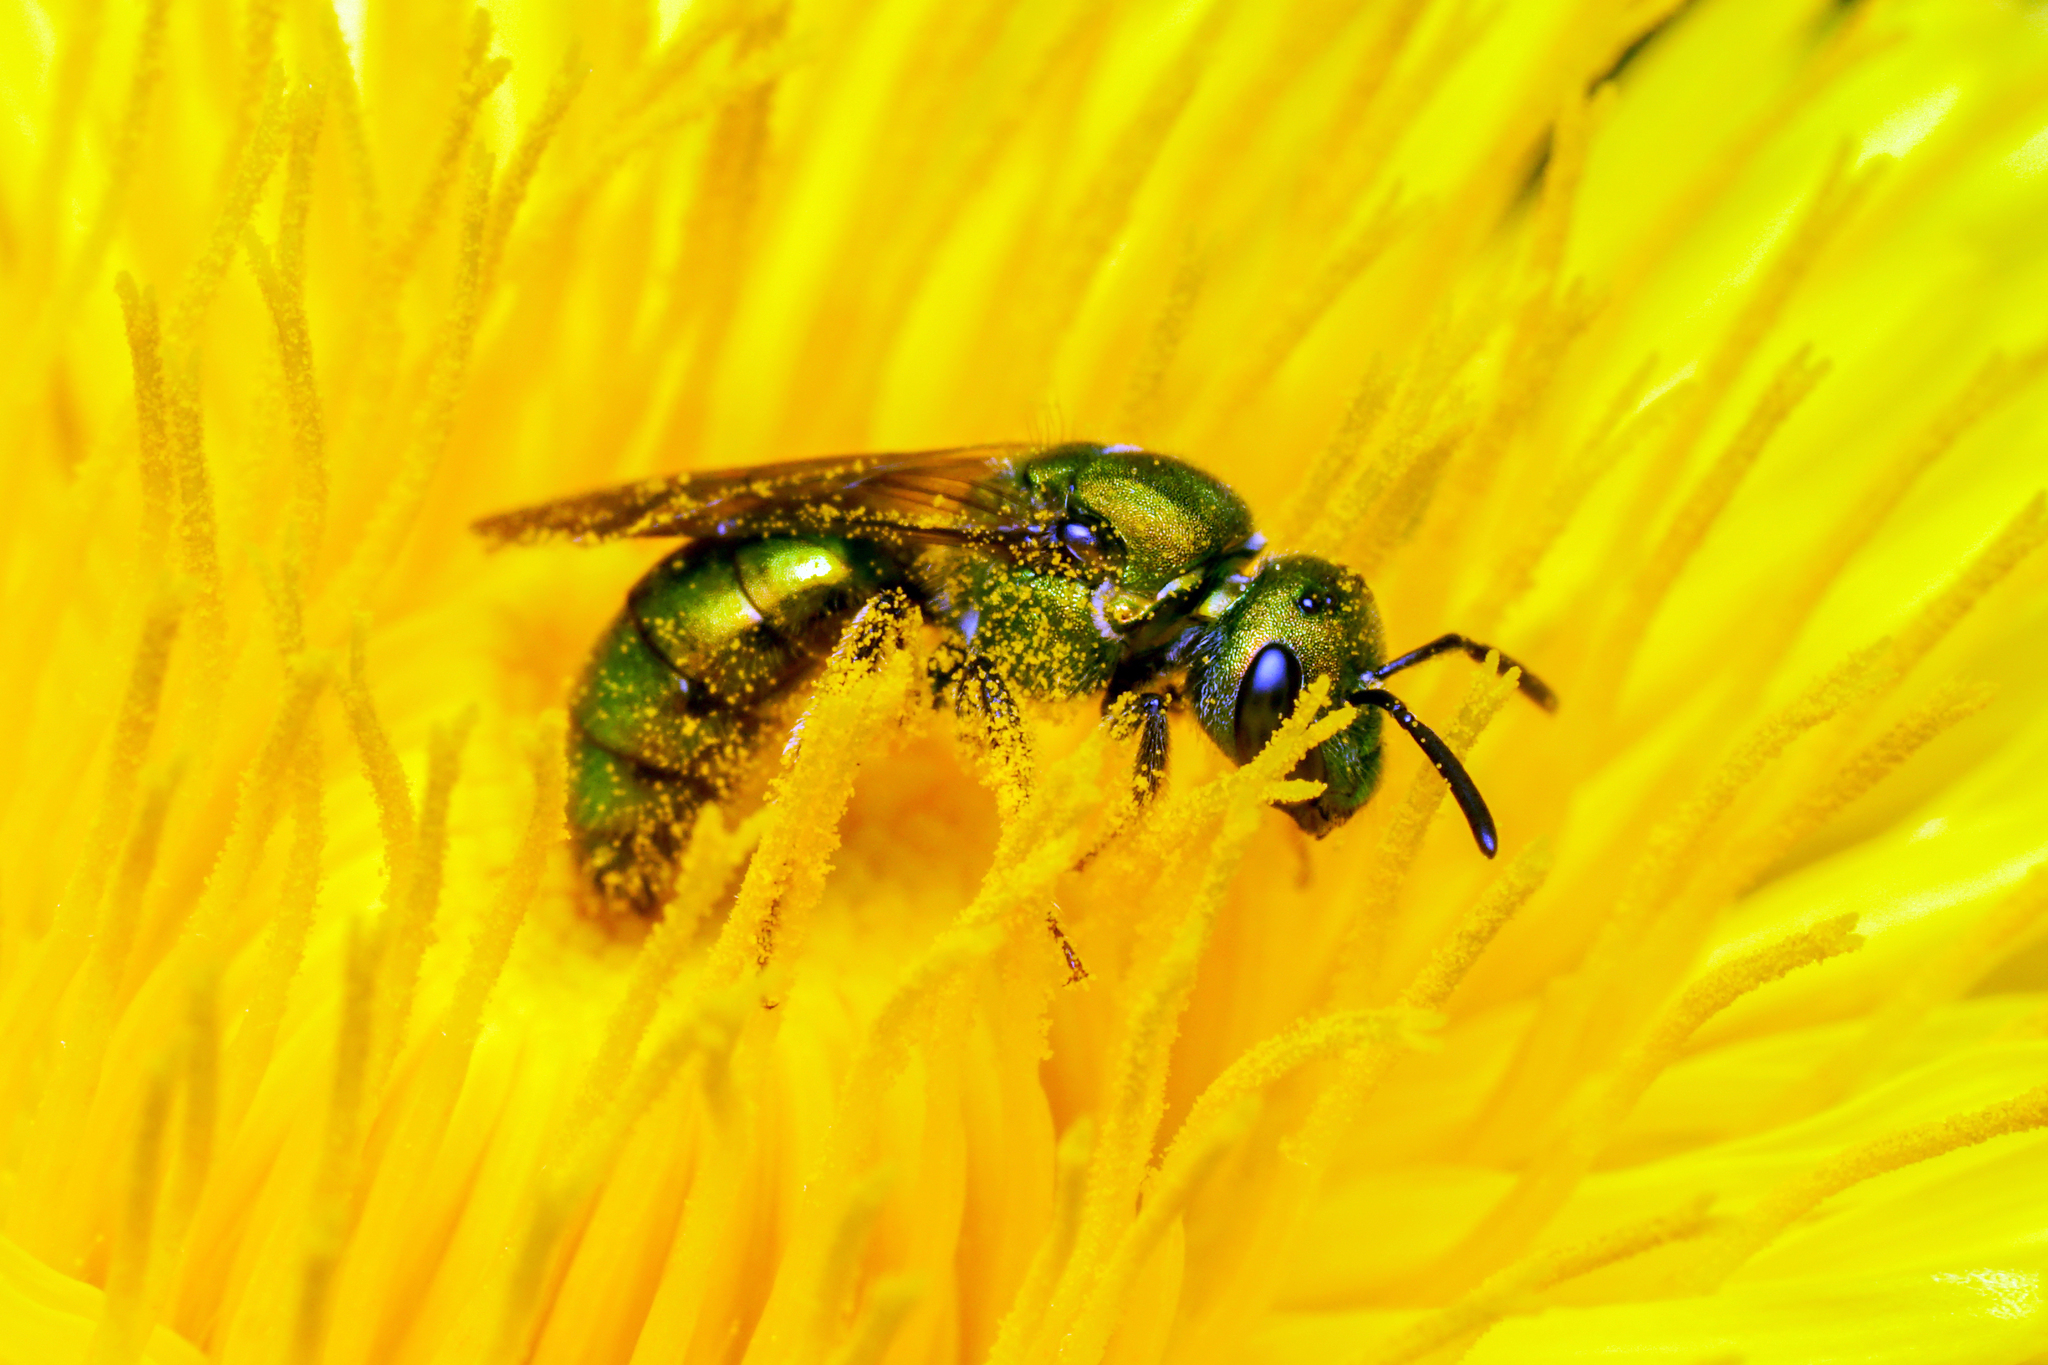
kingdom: Animalia
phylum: Arthropoda
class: Insecta
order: Hymenoptera
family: Halictidae
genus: Augochlora
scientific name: Augochlora pura
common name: Pure green sweat bee
